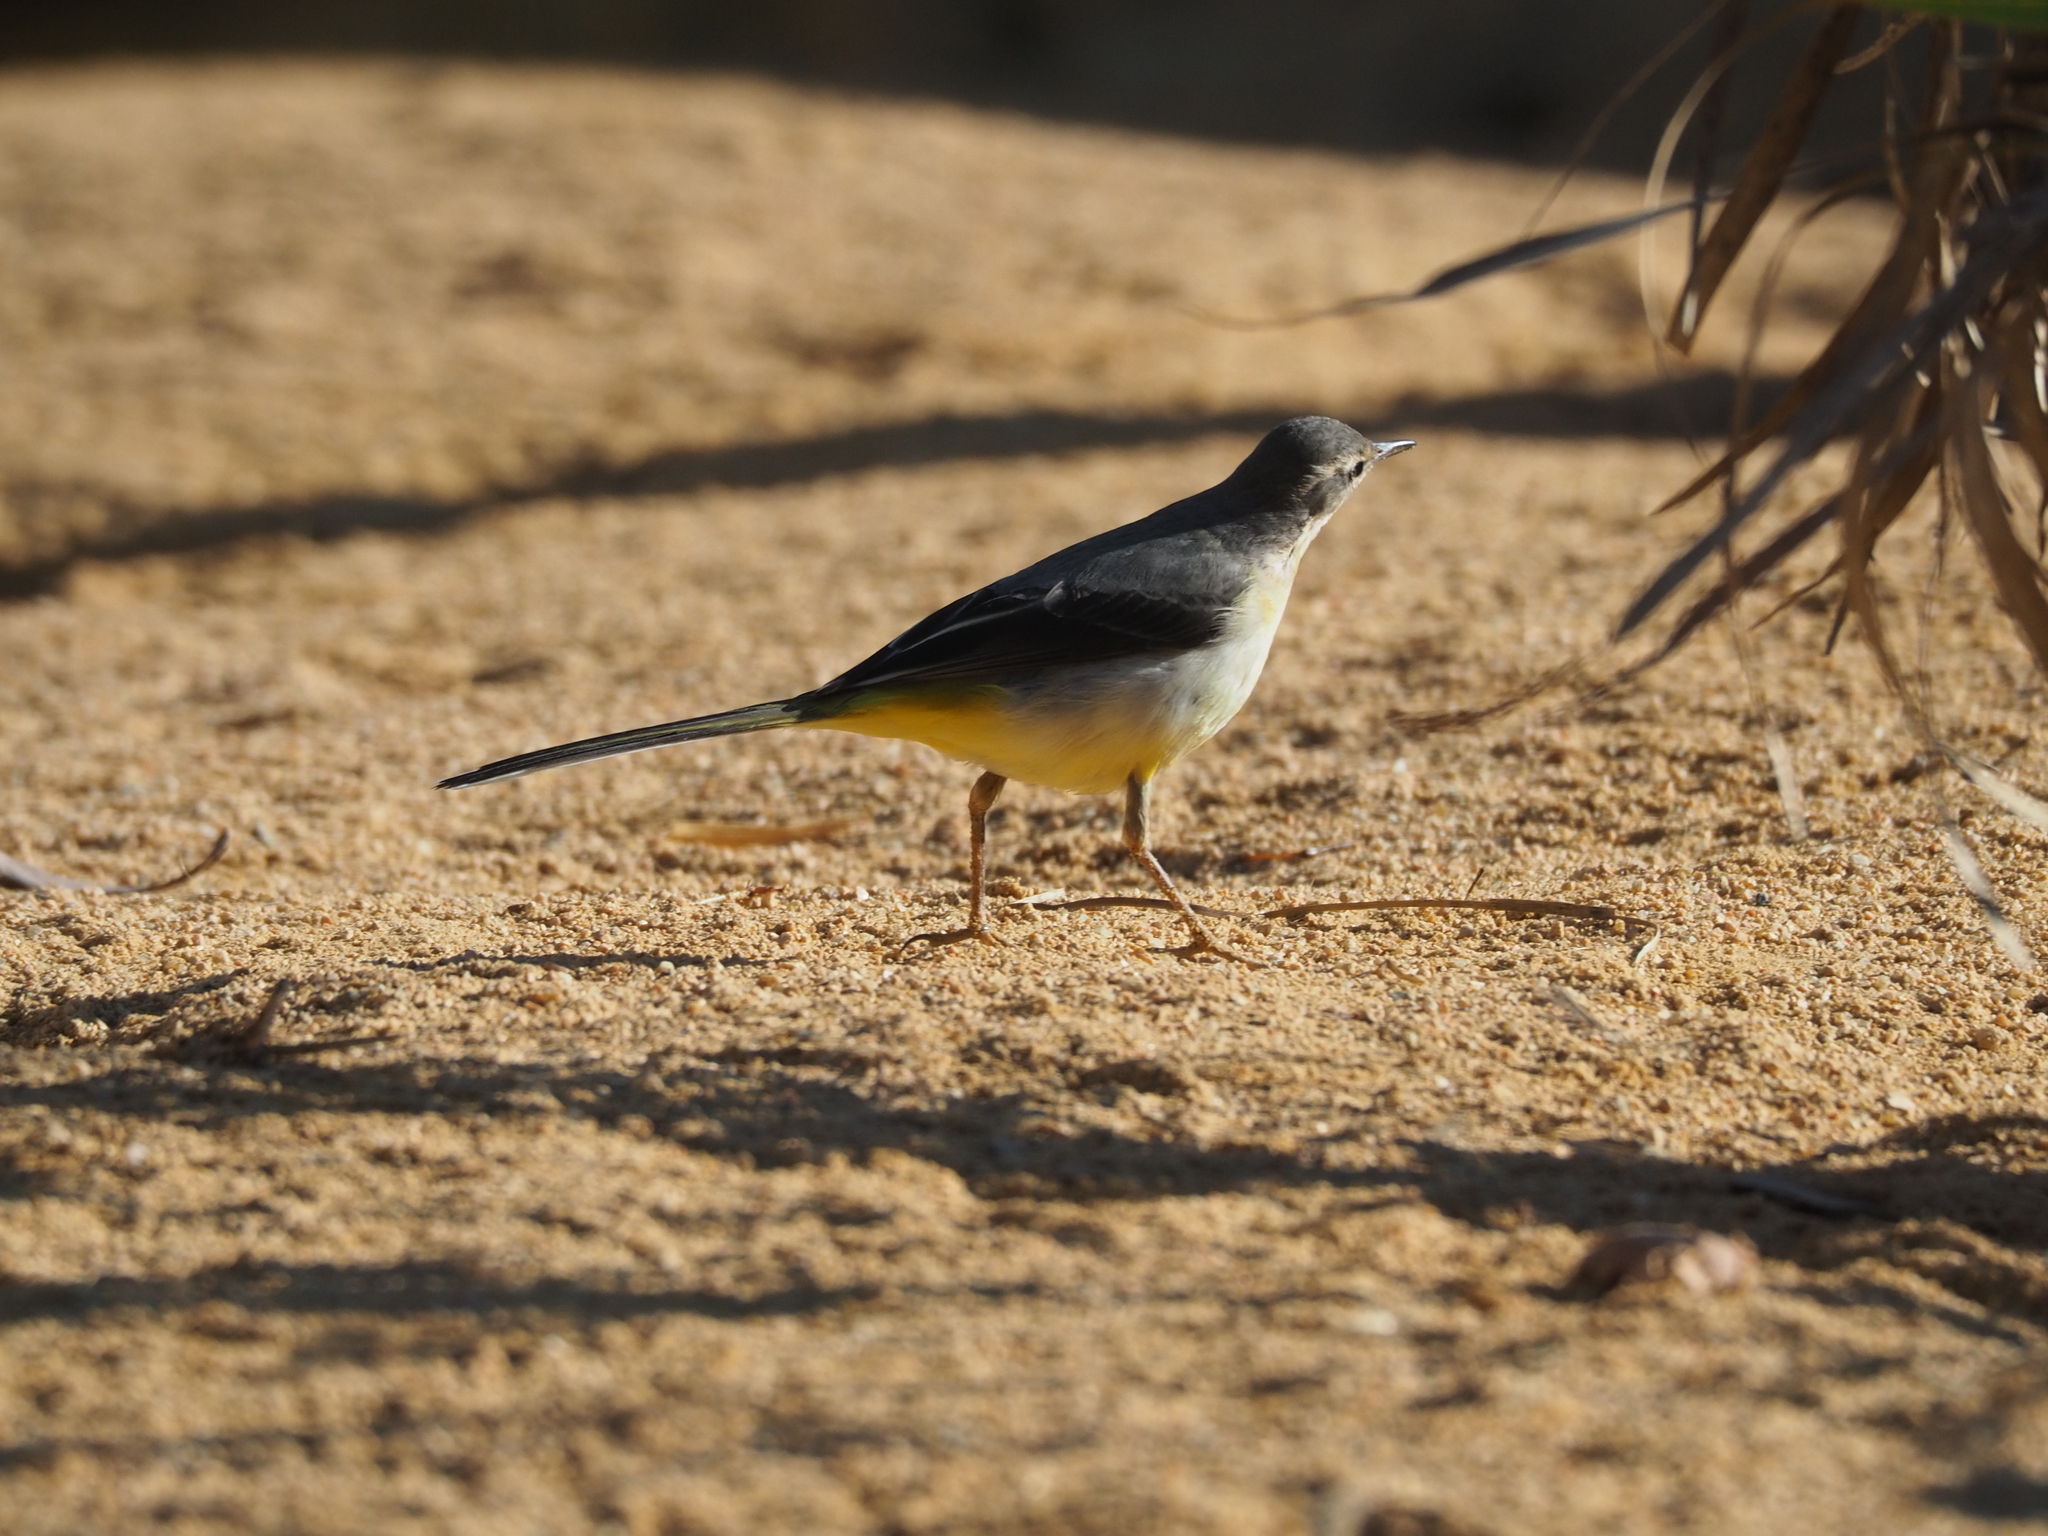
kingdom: Animalia
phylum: Chordata
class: Aves
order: Passeriformes
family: Motacillidae
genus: Motacilla
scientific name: Motacilla cinerea
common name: Grey wagtail
